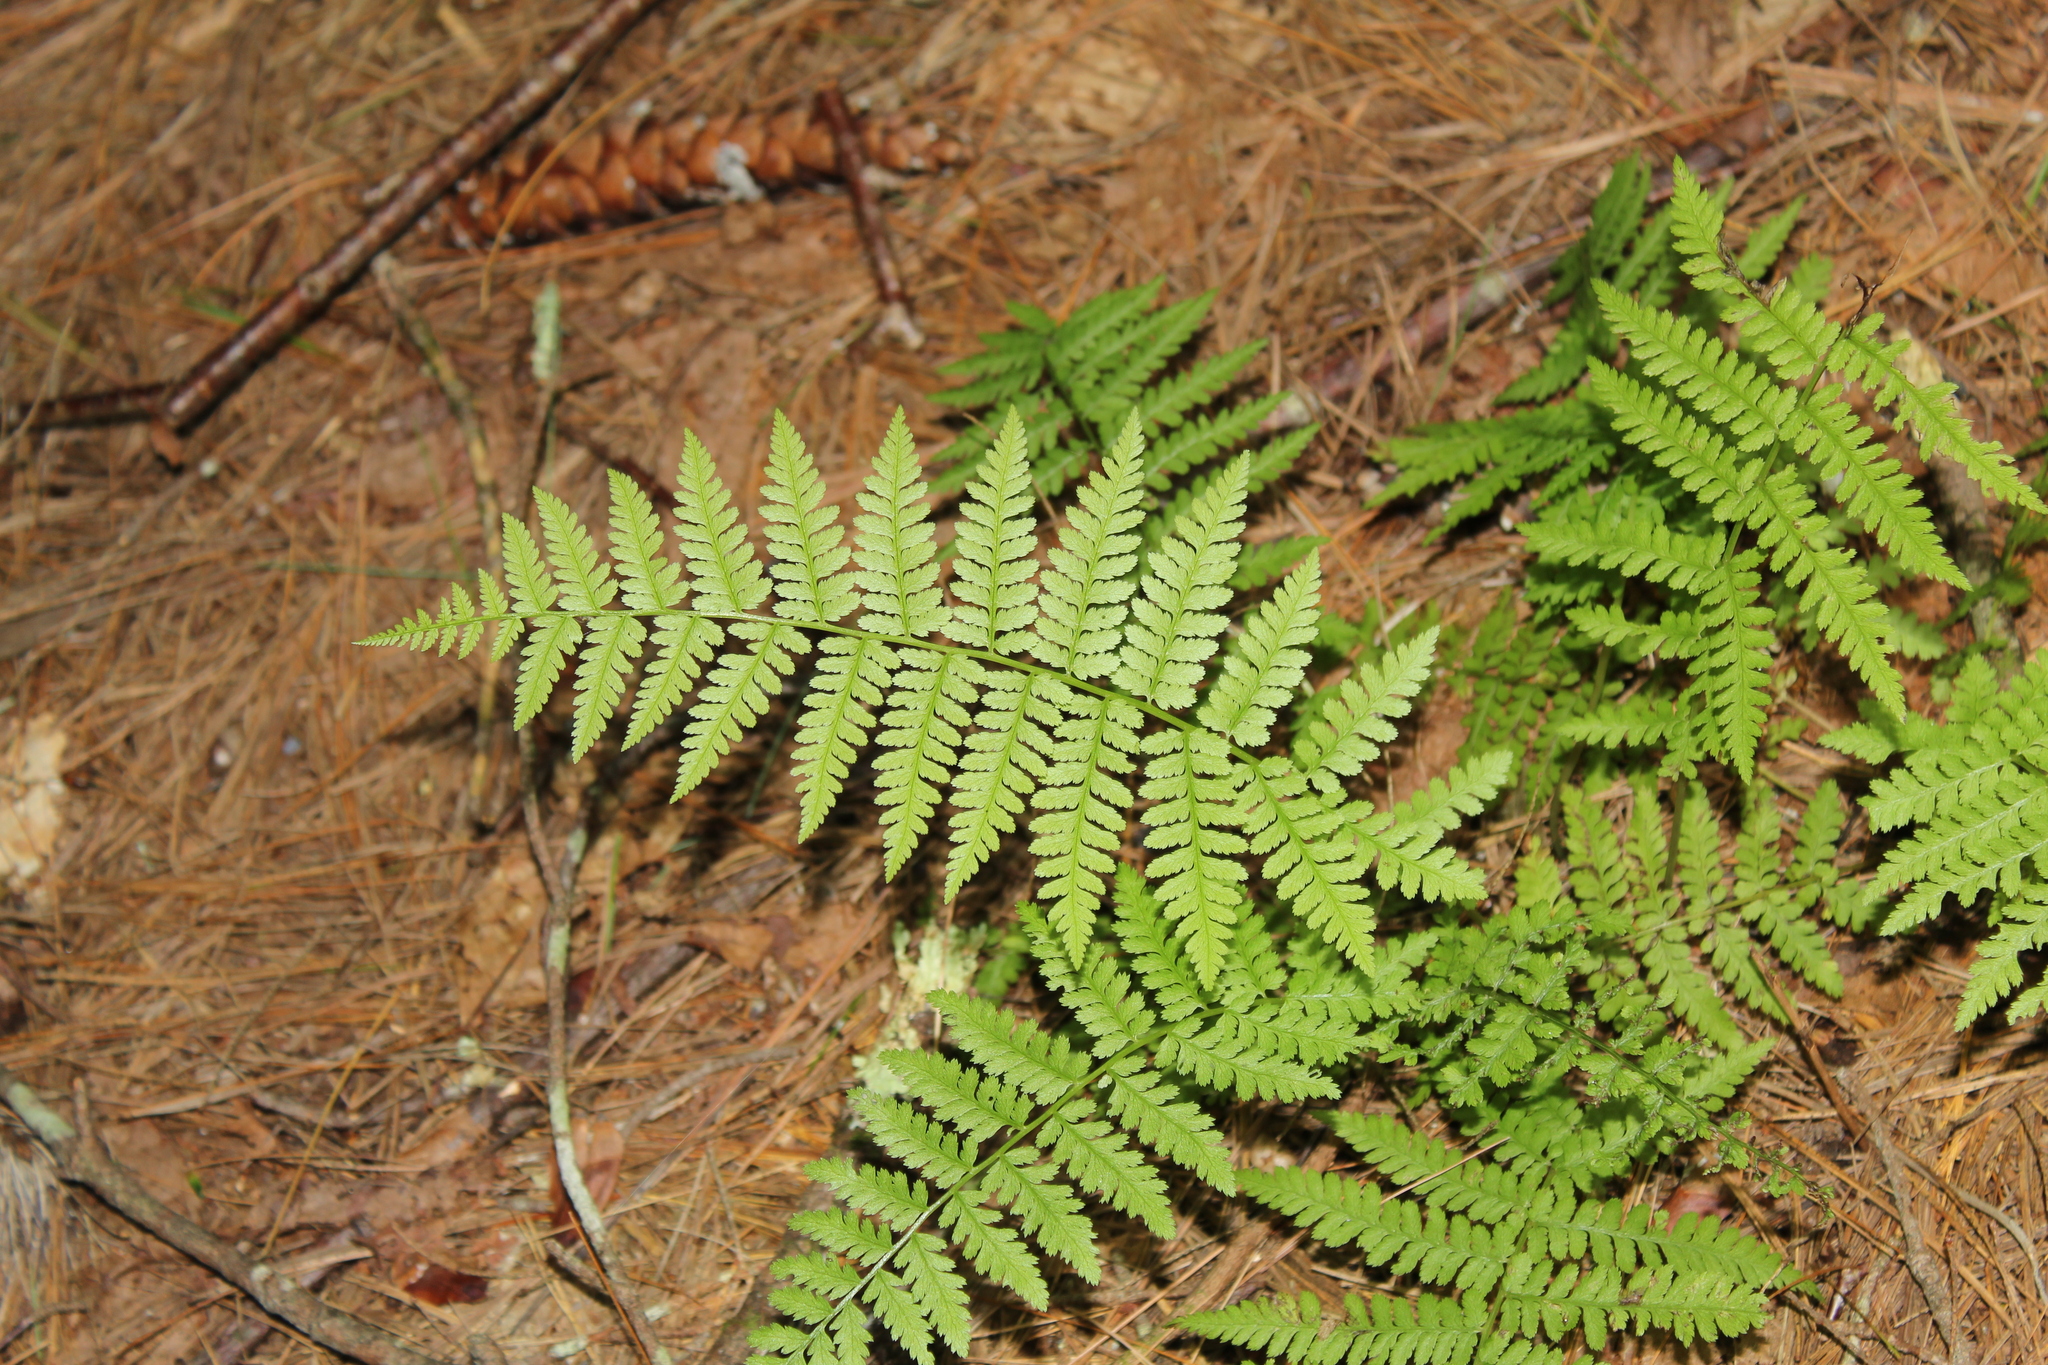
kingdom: Plantae
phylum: Tracheophyta
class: Polypodiopsida
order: Polypodiales
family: Athyriaceae
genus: Athyrium
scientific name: Athyrium angustum
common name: Northern lady fern
